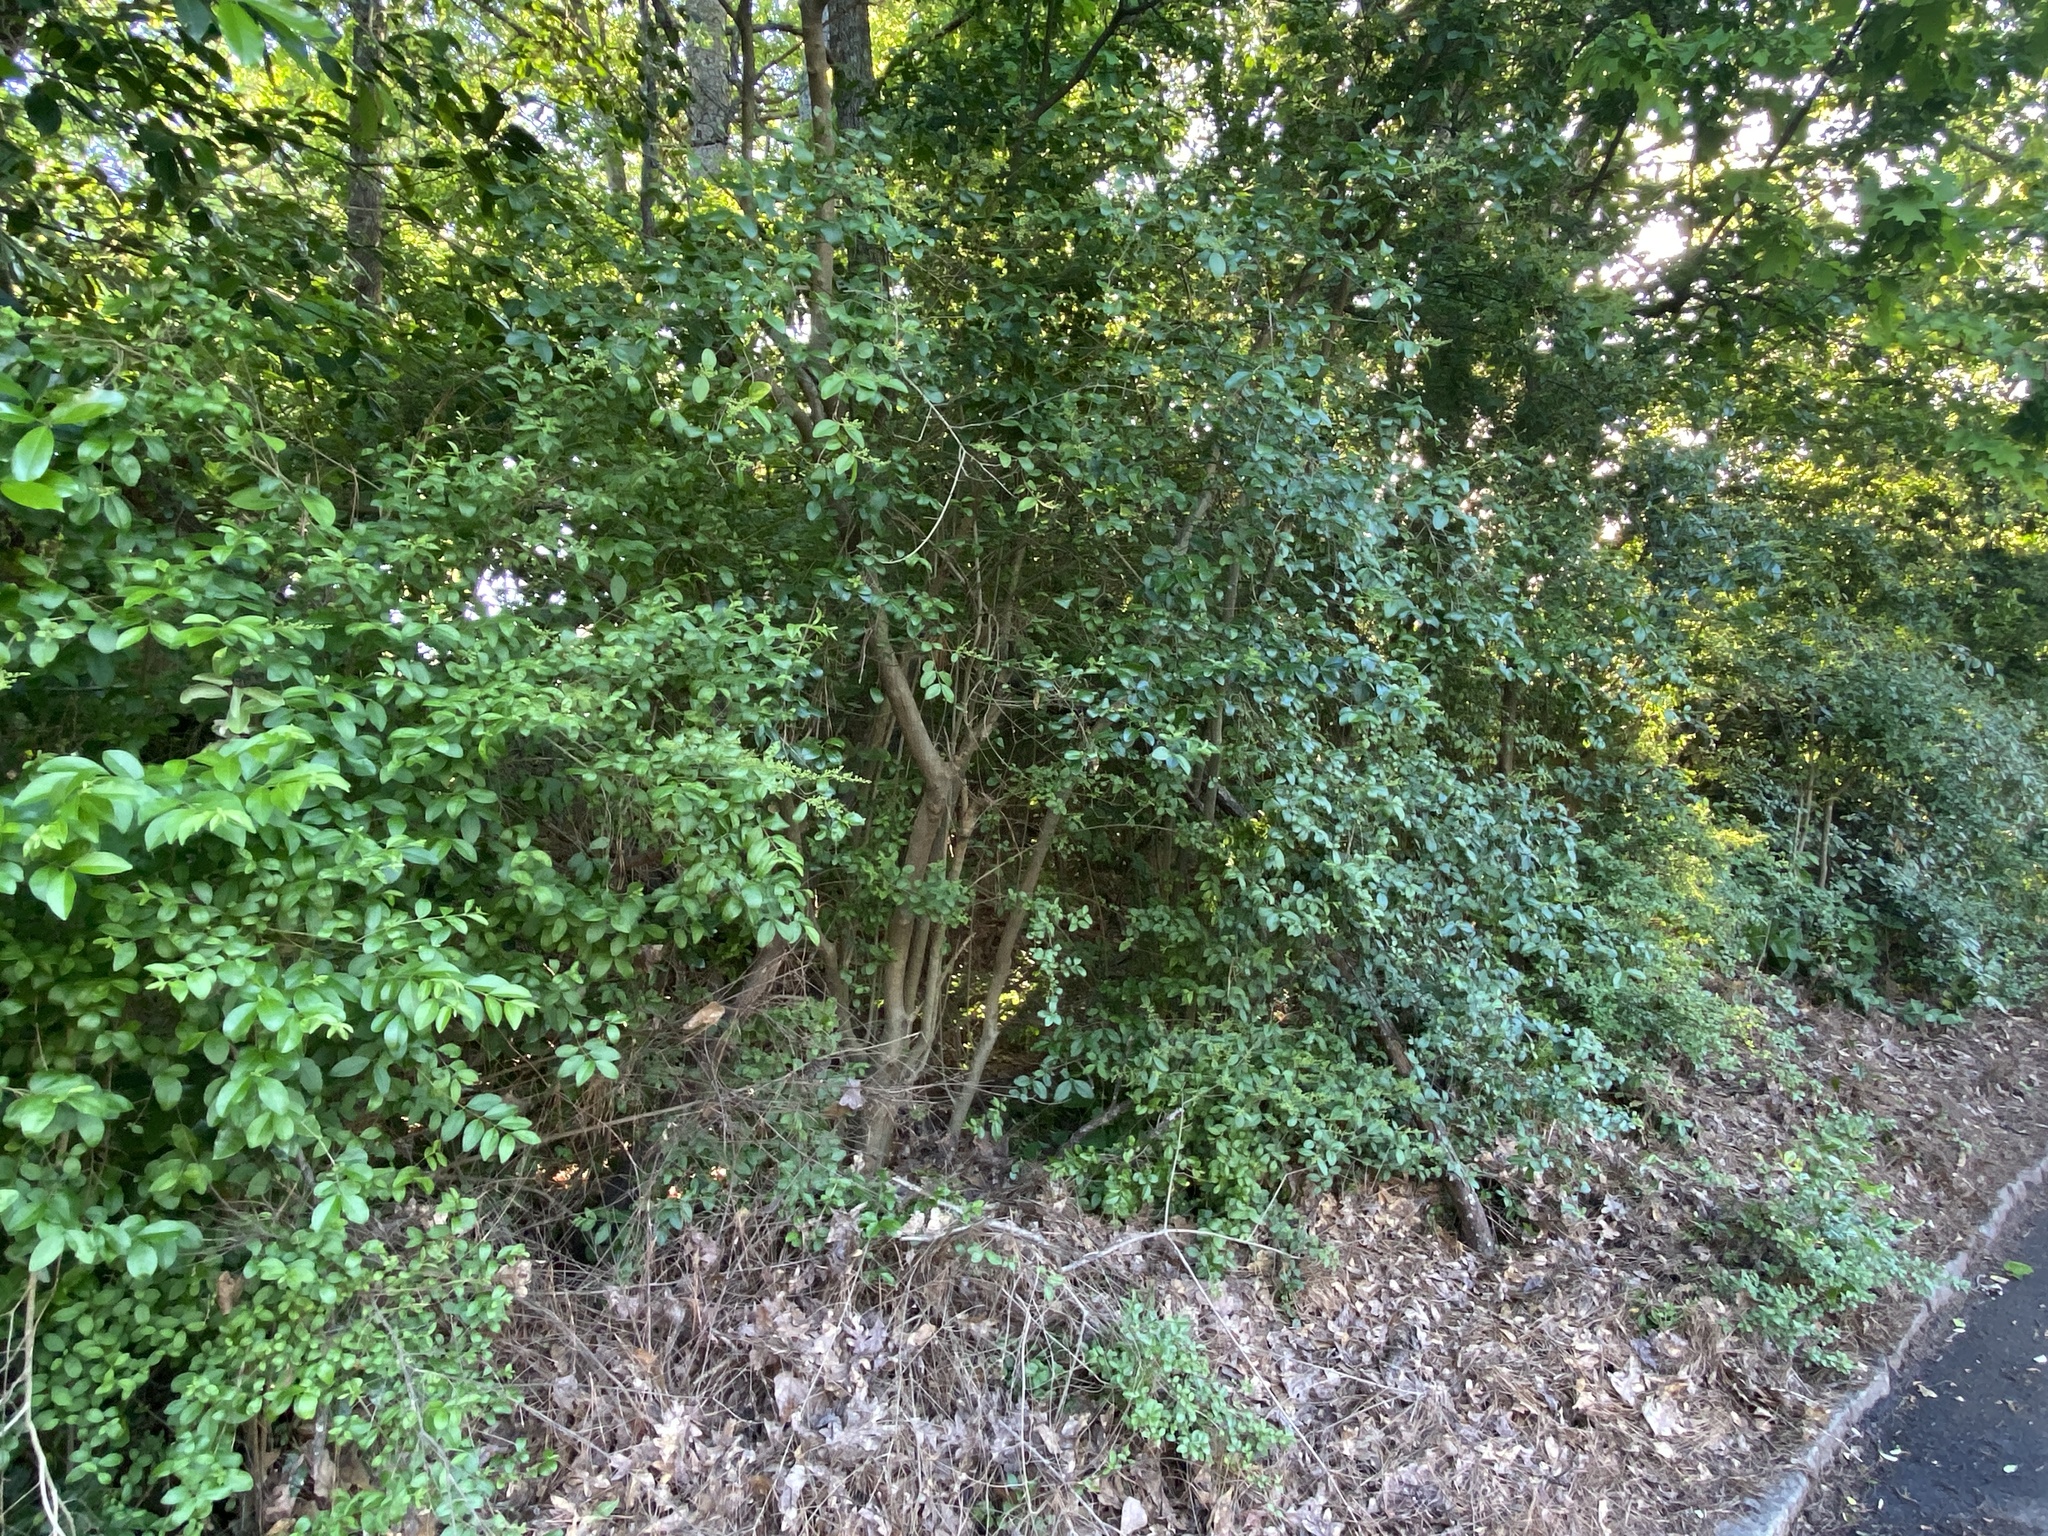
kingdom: Plantae
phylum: Tracheophyta
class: Magnoliopsida
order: Lamiales
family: Oleaceae
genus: Ligustrum
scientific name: Ligustrum sinense
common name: Chinese privet
